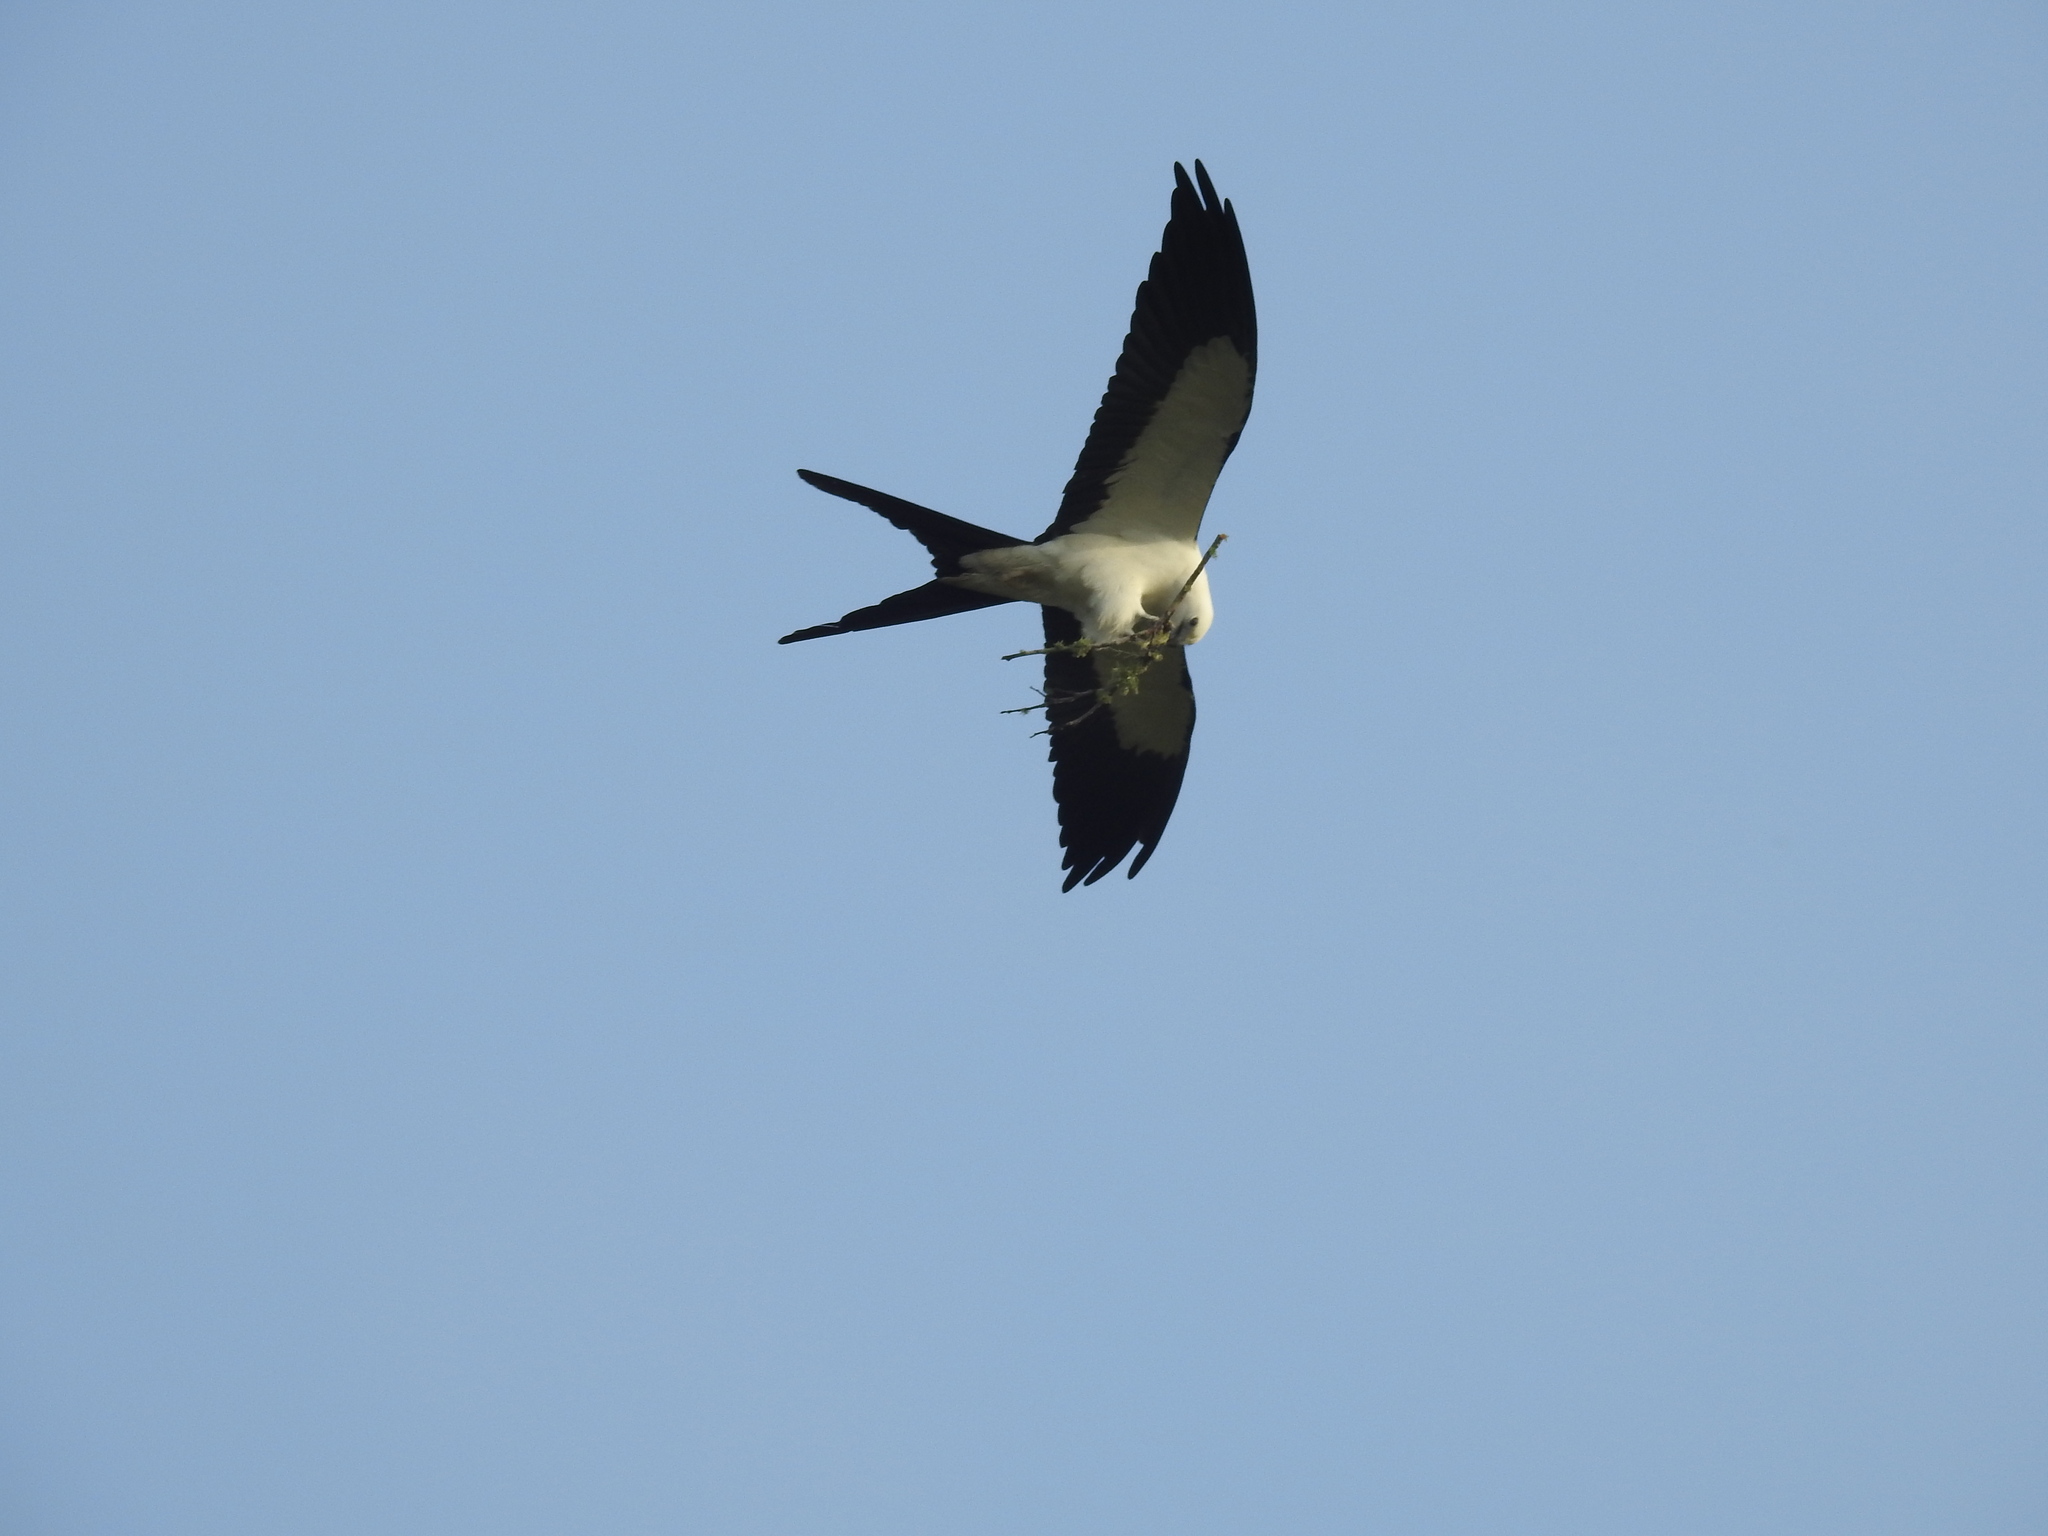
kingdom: Animalia
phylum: Chordata
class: Aves
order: Accipitriformes
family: Accipitridae
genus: Elanoides
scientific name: Elanoides forficatus
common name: Swallow-tailed kite
